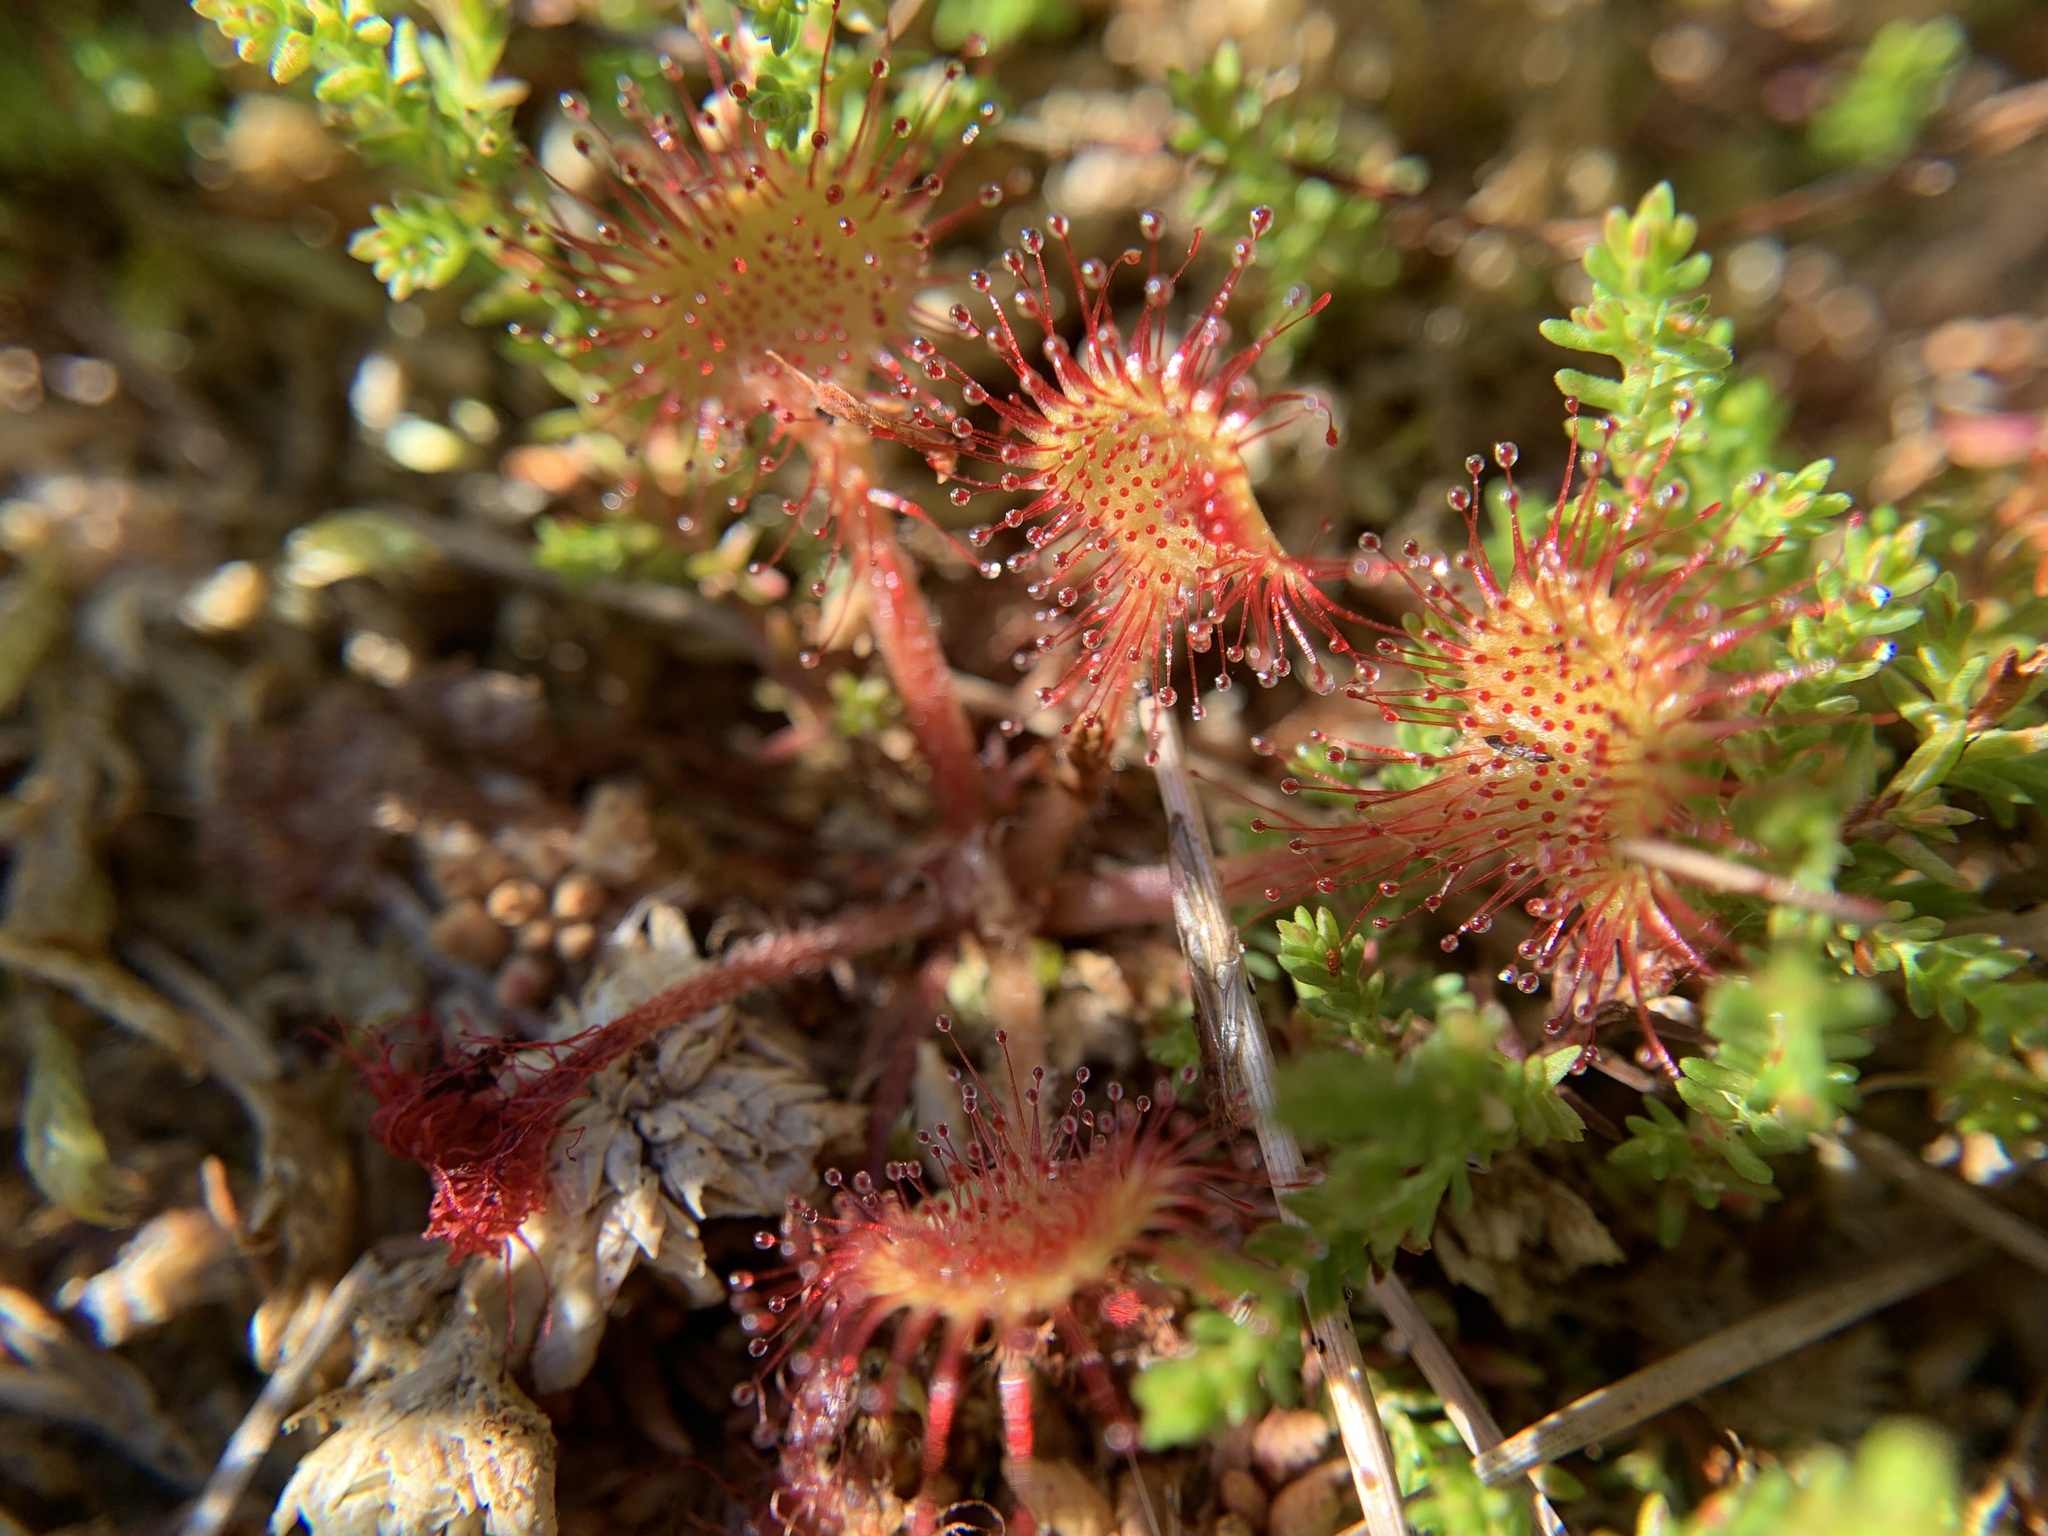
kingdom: Plantae
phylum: Tracheophyta
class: Magnoliopsida
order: Caryophyllales
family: Droseraceae
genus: Drosera
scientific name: Drosera rotundifolia
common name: Round-leaved sundew
